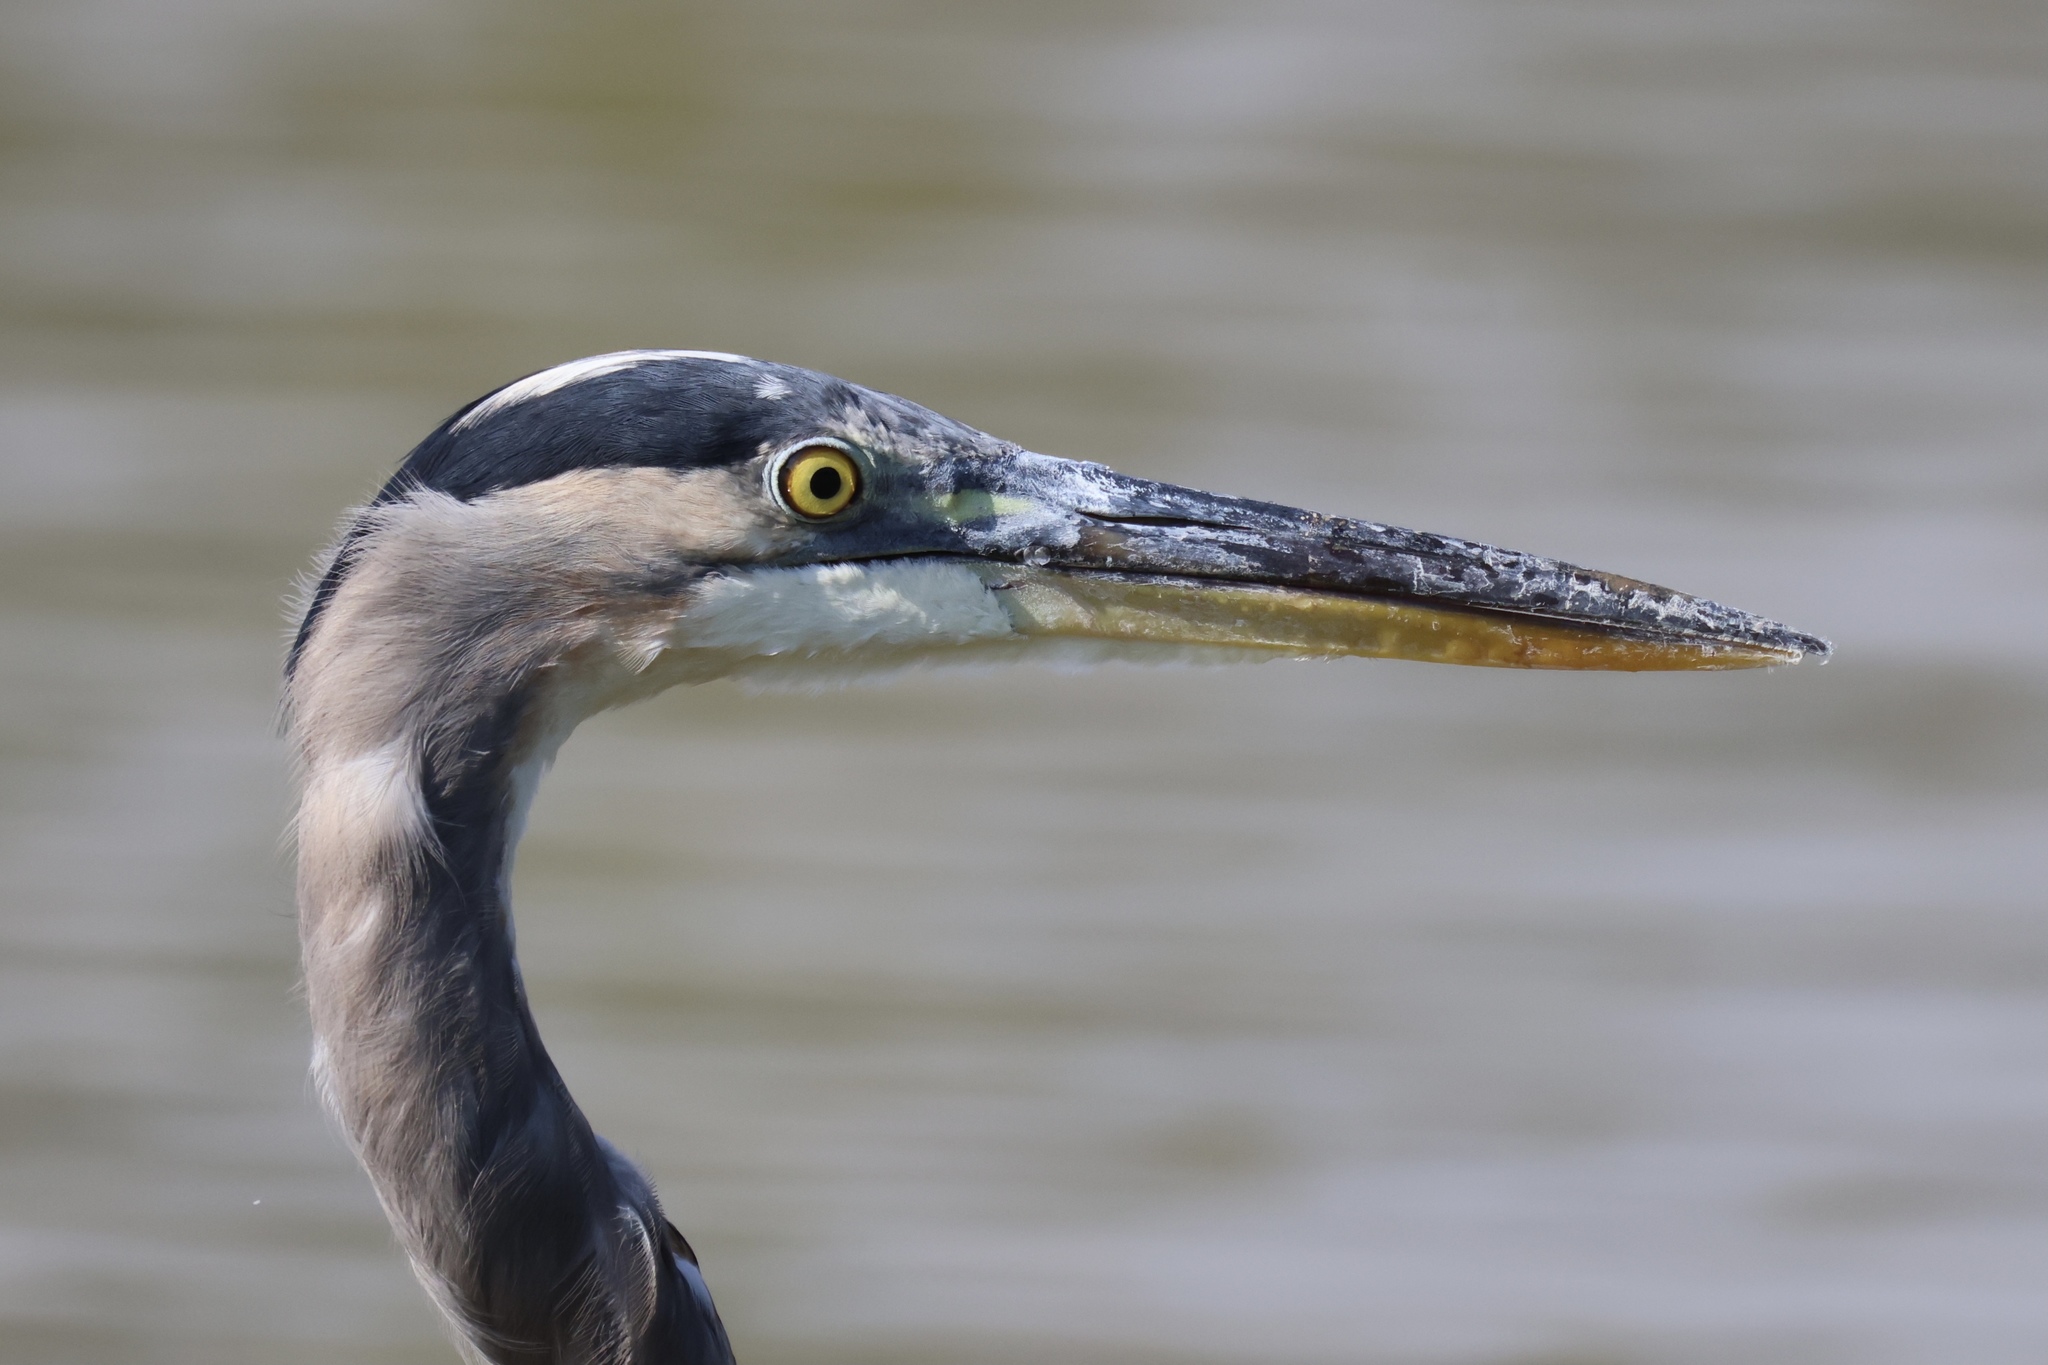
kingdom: Animalia
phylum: Chordata
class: Aves
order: Pelecaniformes
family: Ardeidae
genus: Ardea
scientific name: Ardea herodias
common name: Great blue heron
